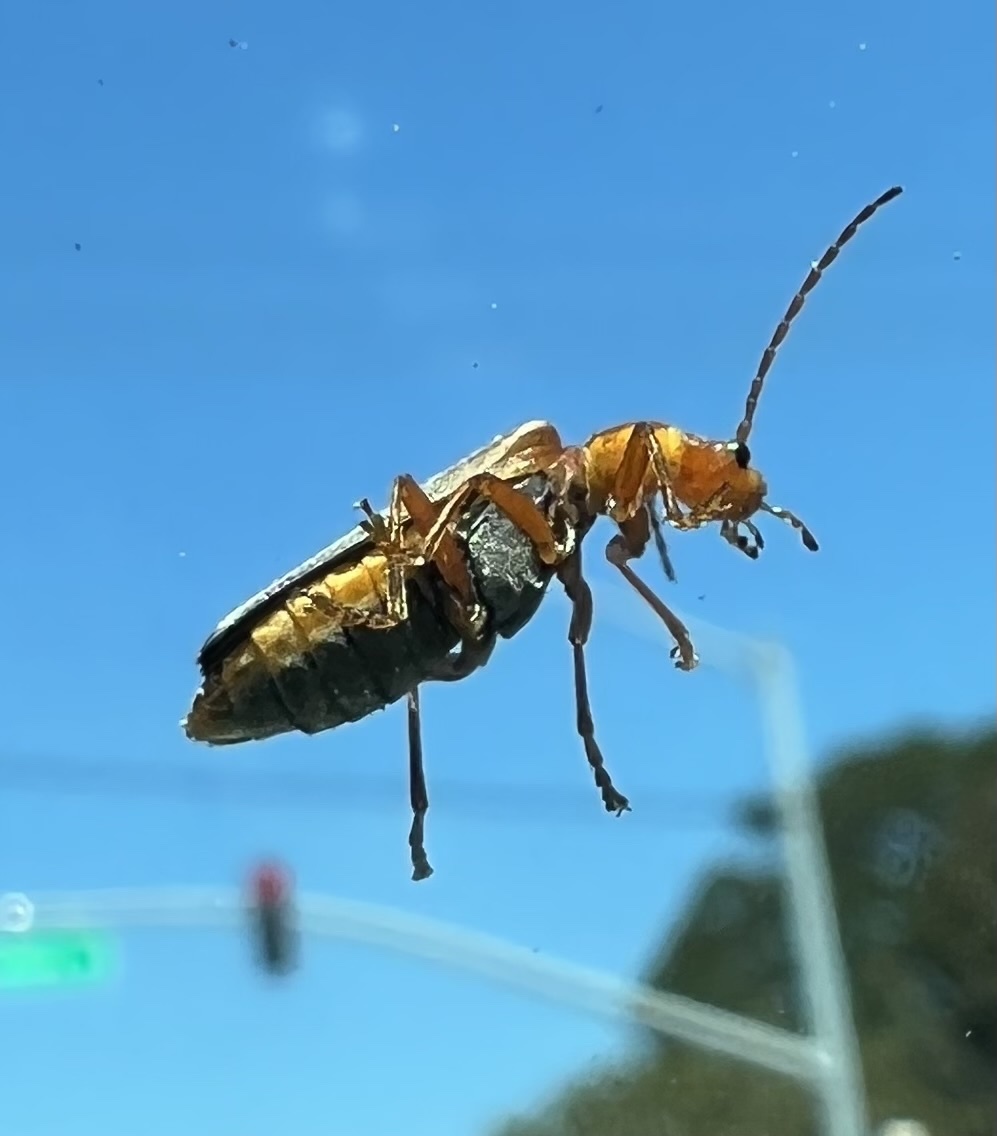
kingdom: Animalia
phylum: Arthropoda
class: Insecta
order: Coleoptera
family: Cantharidae
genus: Podabrus
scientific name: Podabrus
